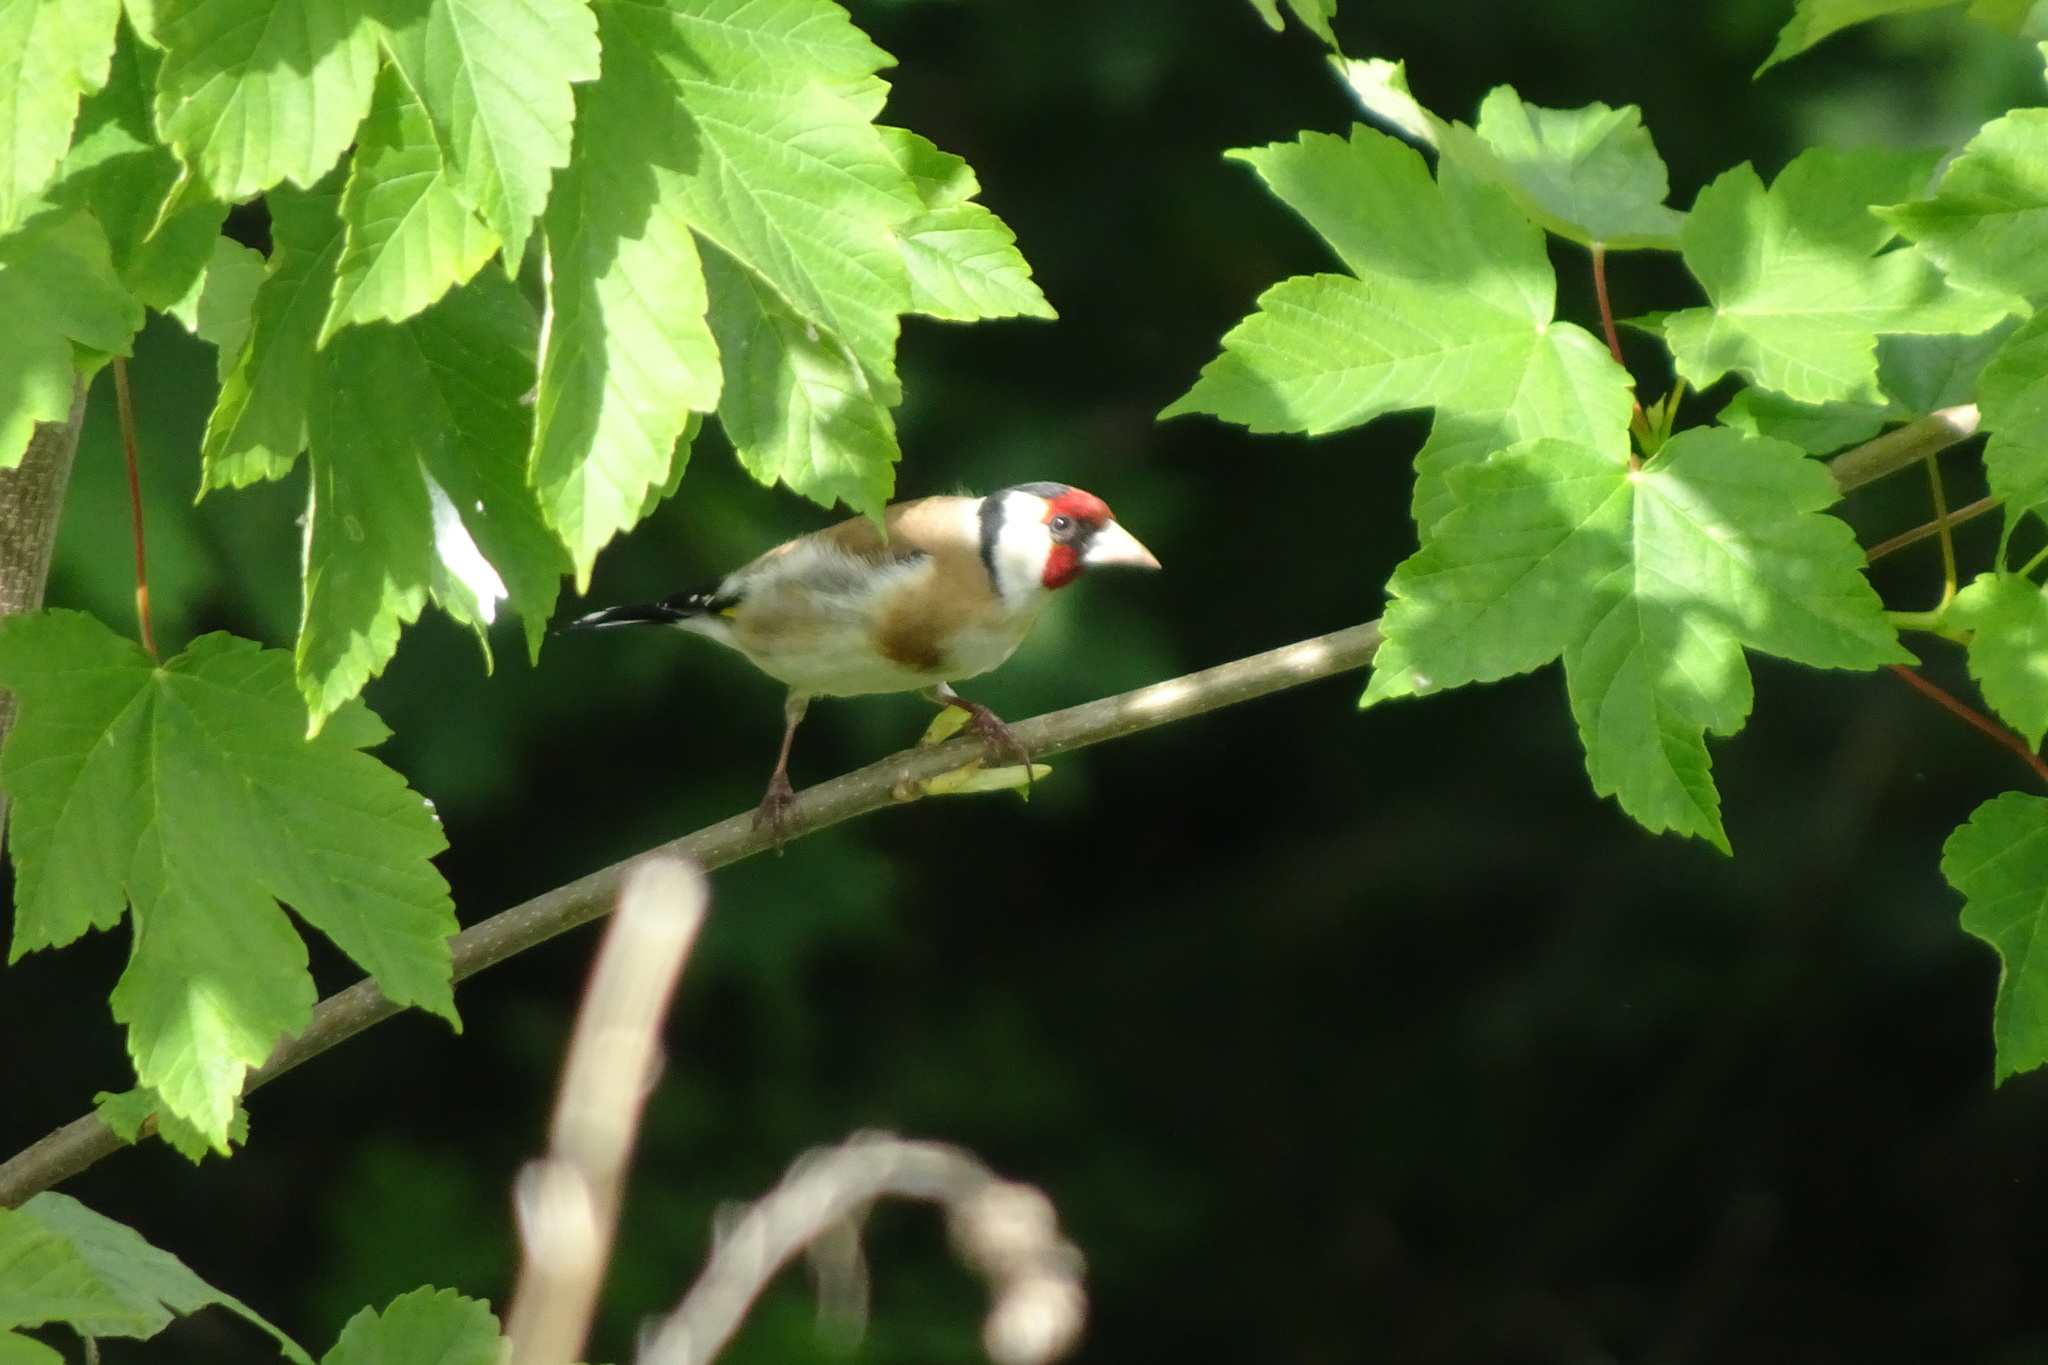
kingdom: Animalia
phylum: Chordata
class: Aves
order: Passeriformes
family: Fringillidae
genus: Carduelis
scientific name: Carduelis carduelis
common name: European goldfinch
